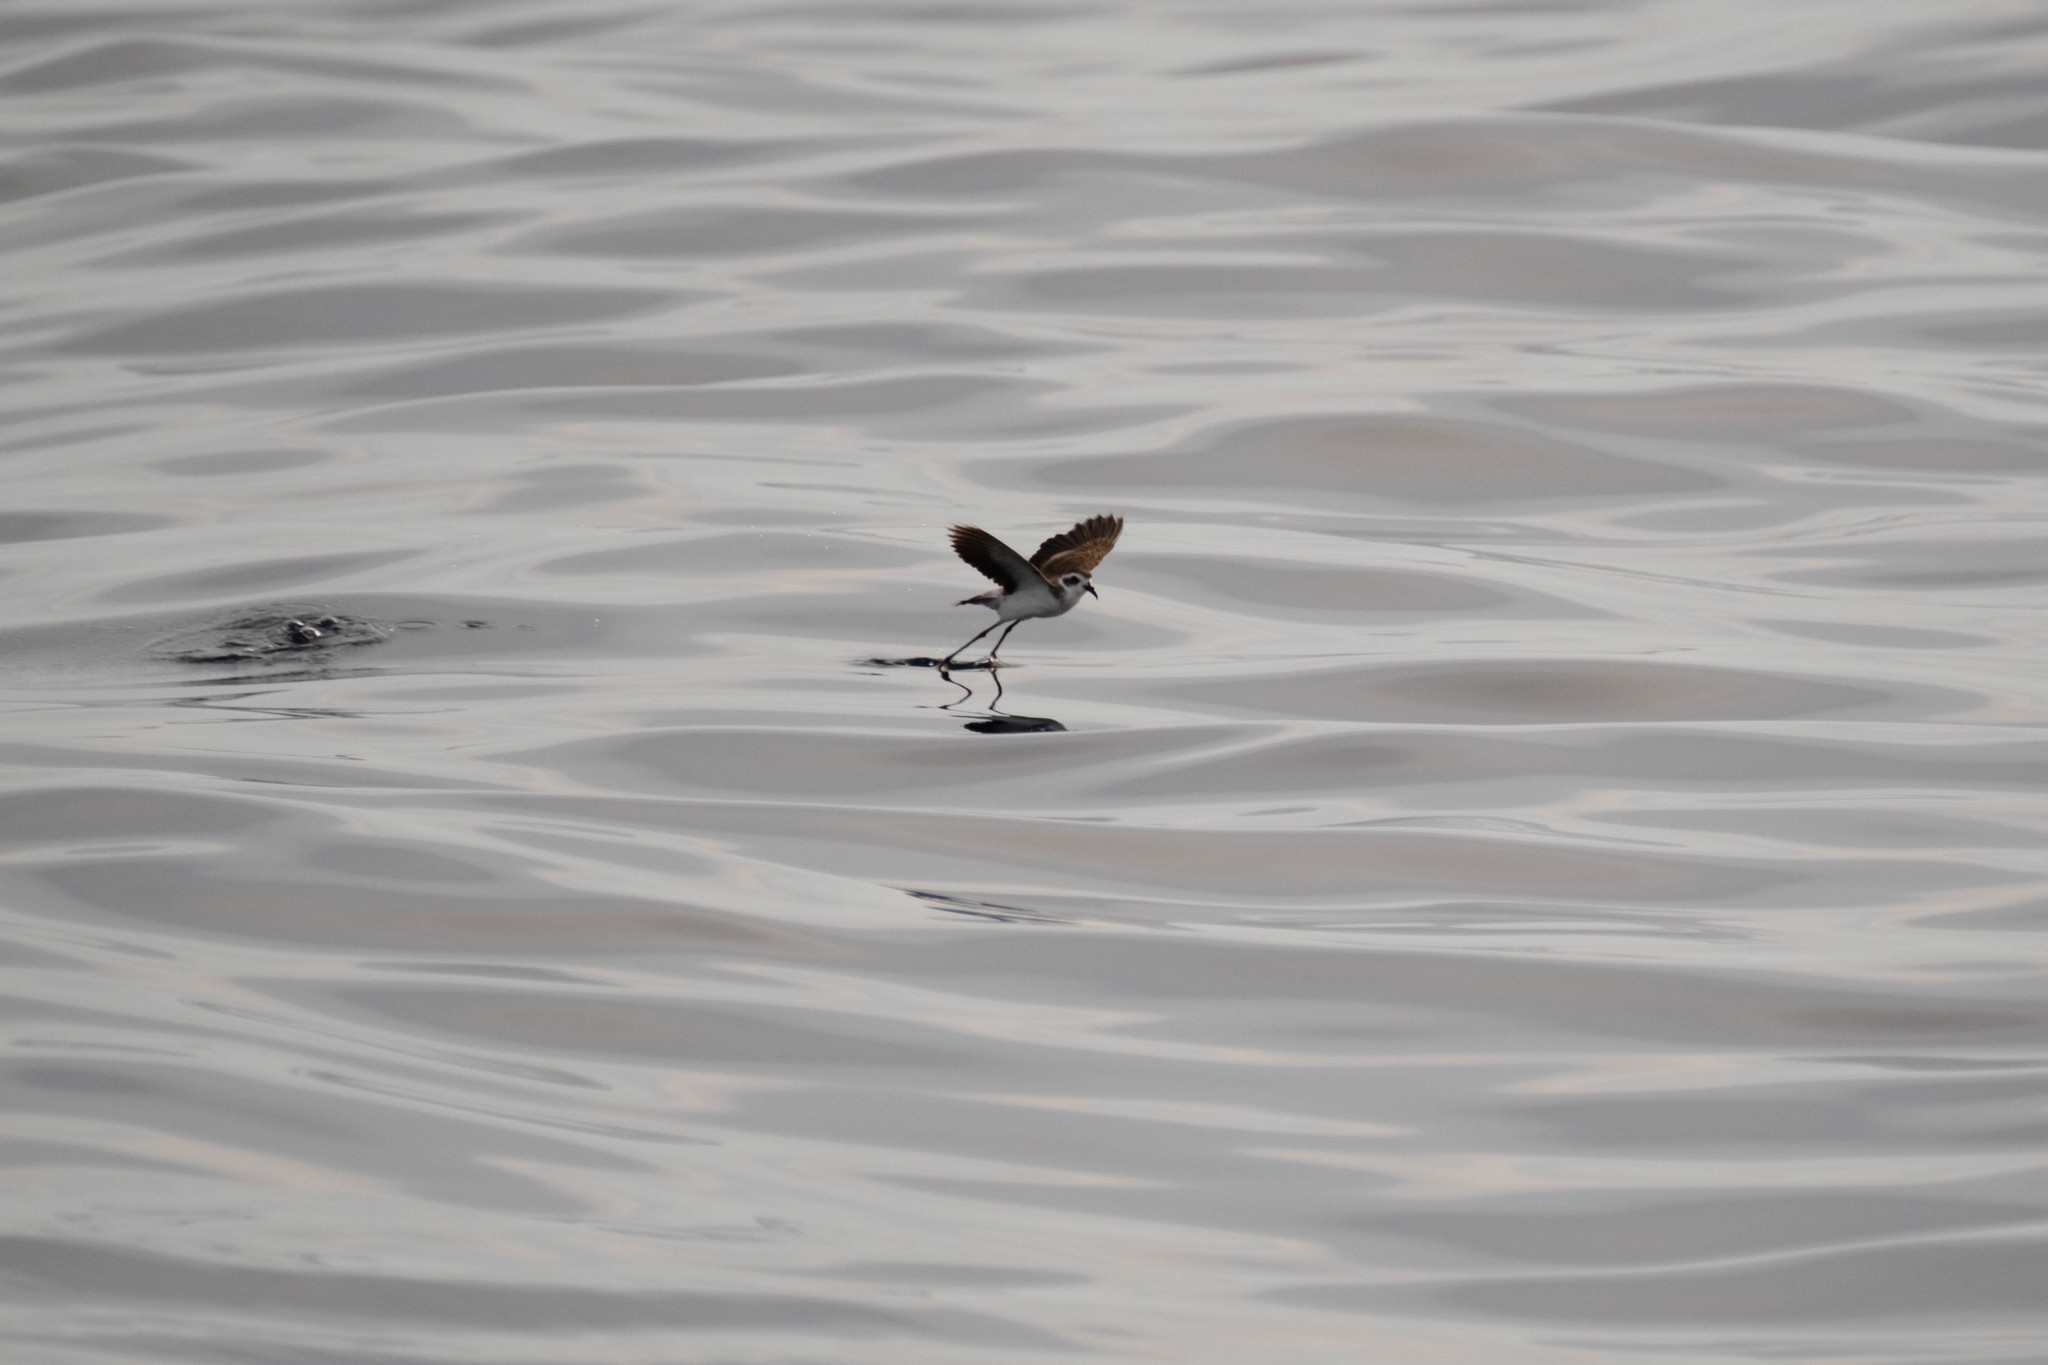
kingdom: Animalia
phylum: Chordata
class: Aves
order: Procellariiformes
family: Hydrobatidae
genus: Pelagodroma
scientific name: Pelagodroma marina
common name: White-faced storm-petrel
